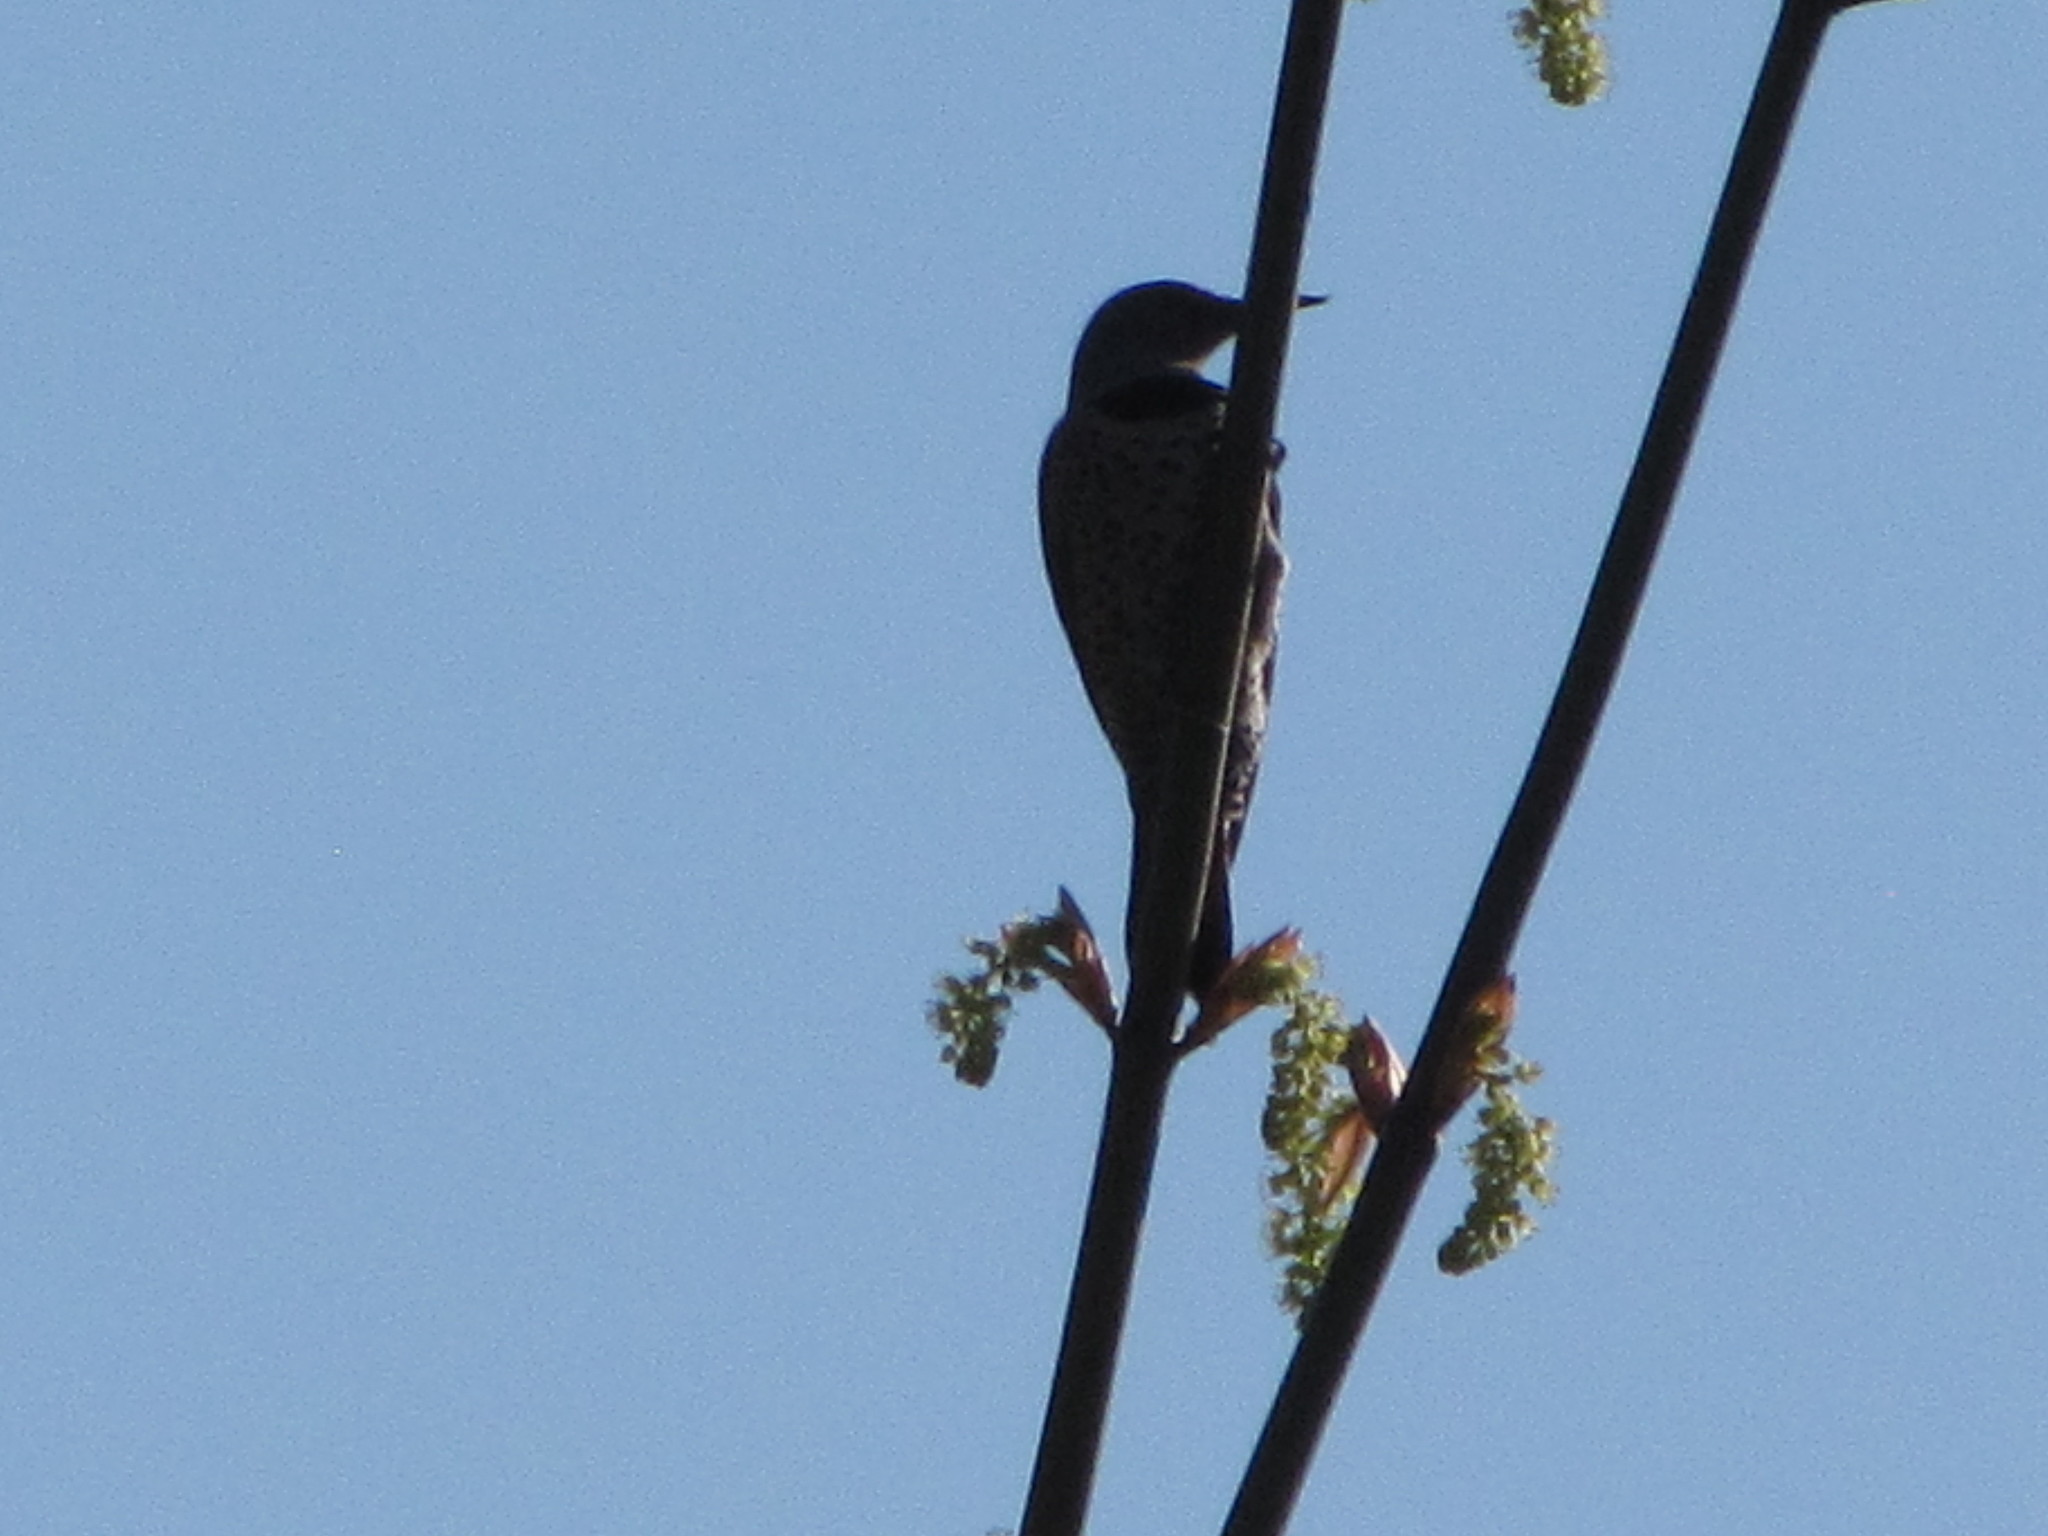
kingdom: Animalia
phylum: Chordata
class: Aves
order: Piciformes
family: Picidae
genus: Colaptes
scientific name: Colaptes auratus
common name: Northern flicker
